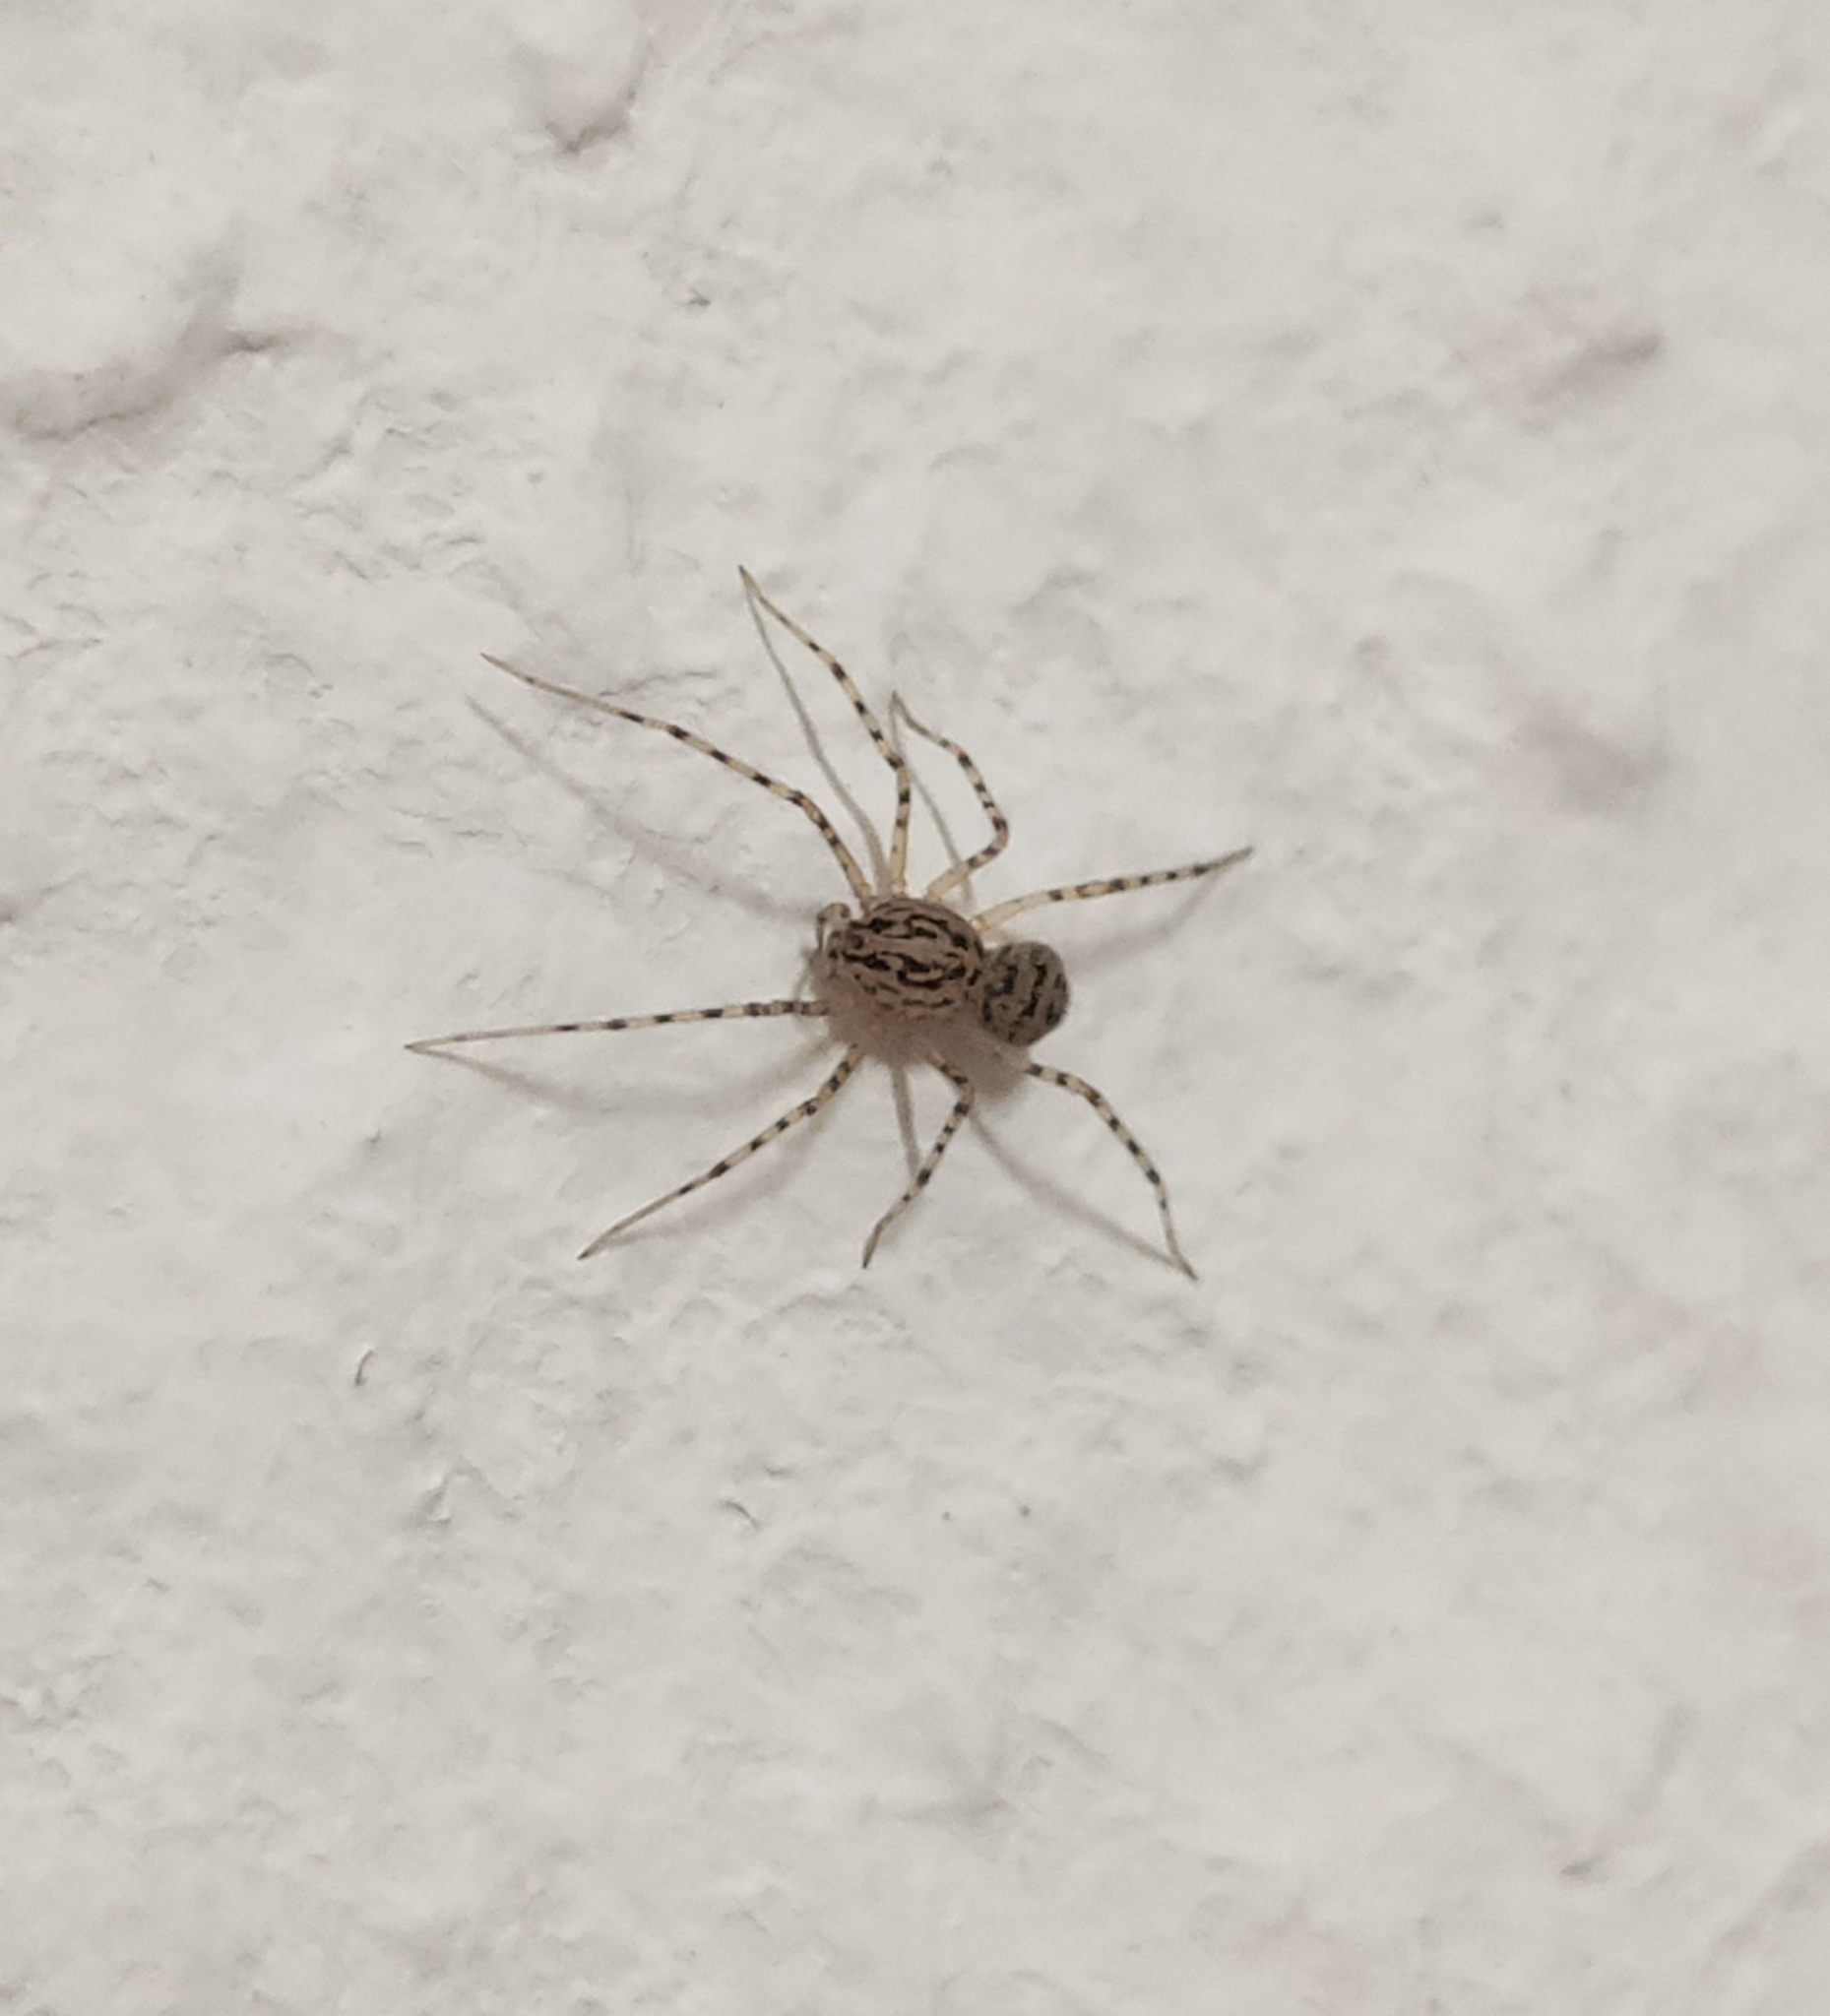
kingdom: Animalia
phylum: Arthropoda
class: Arachnida
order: Araneae
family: Scytodidae
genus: Scytodes
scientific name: Scytodes thoracica
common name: Spitting spider
